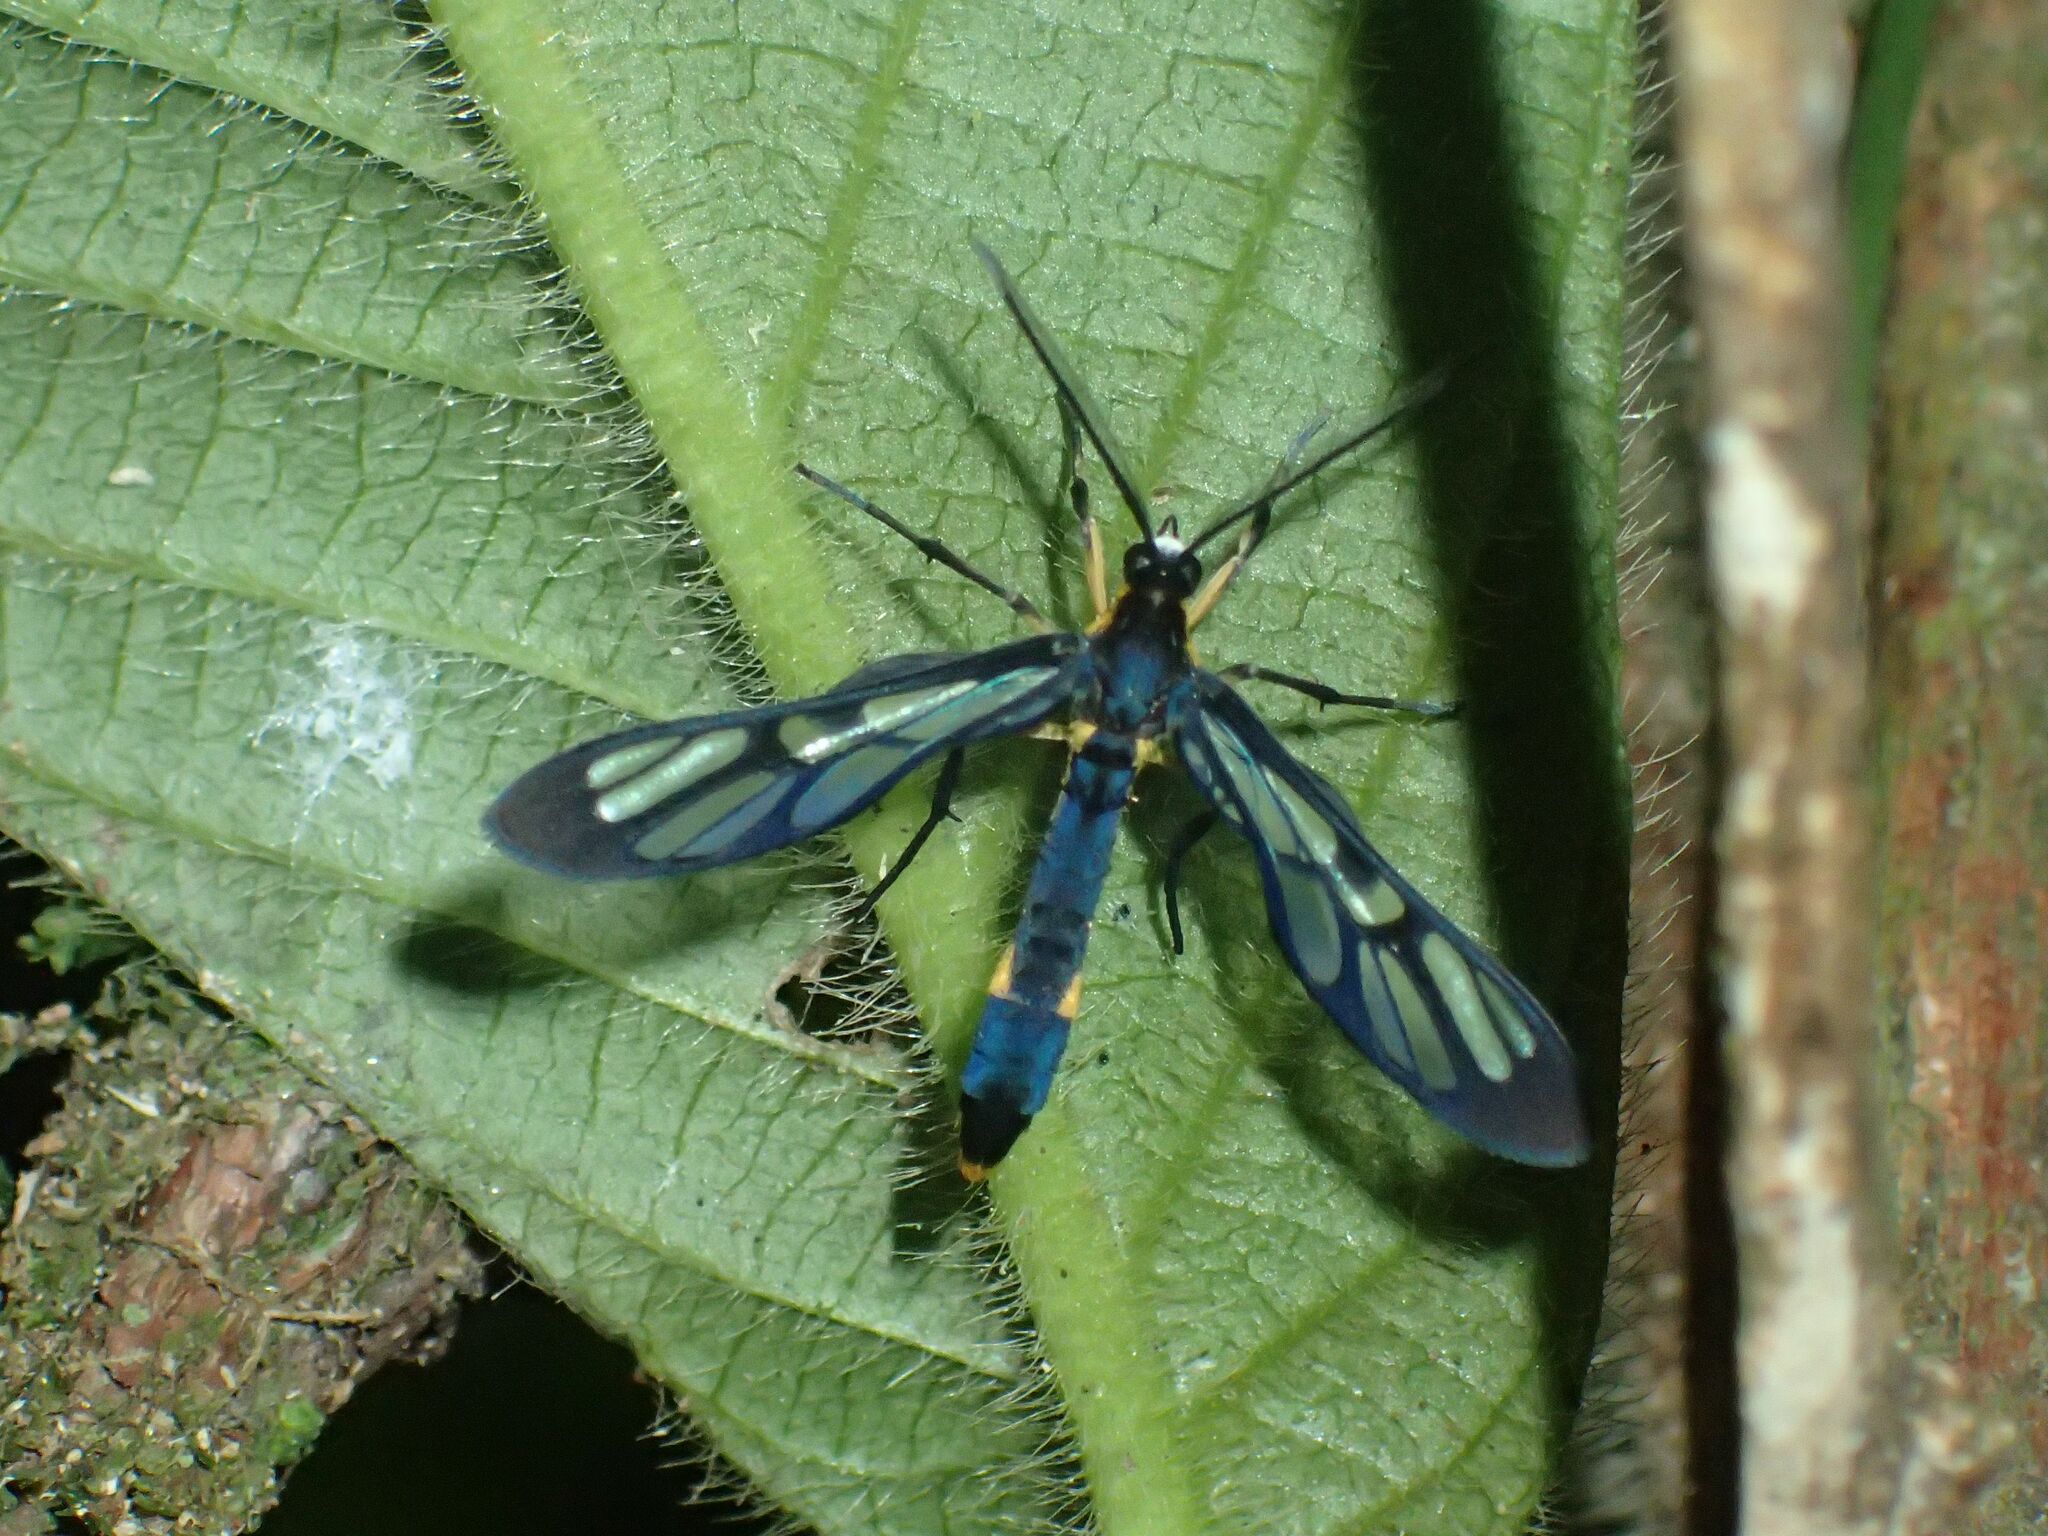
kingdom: Animalia
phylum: Arthropoda
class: Insecta
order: Lepidoptera
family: Erebidae
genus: Amata
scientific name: Amata leimacis
